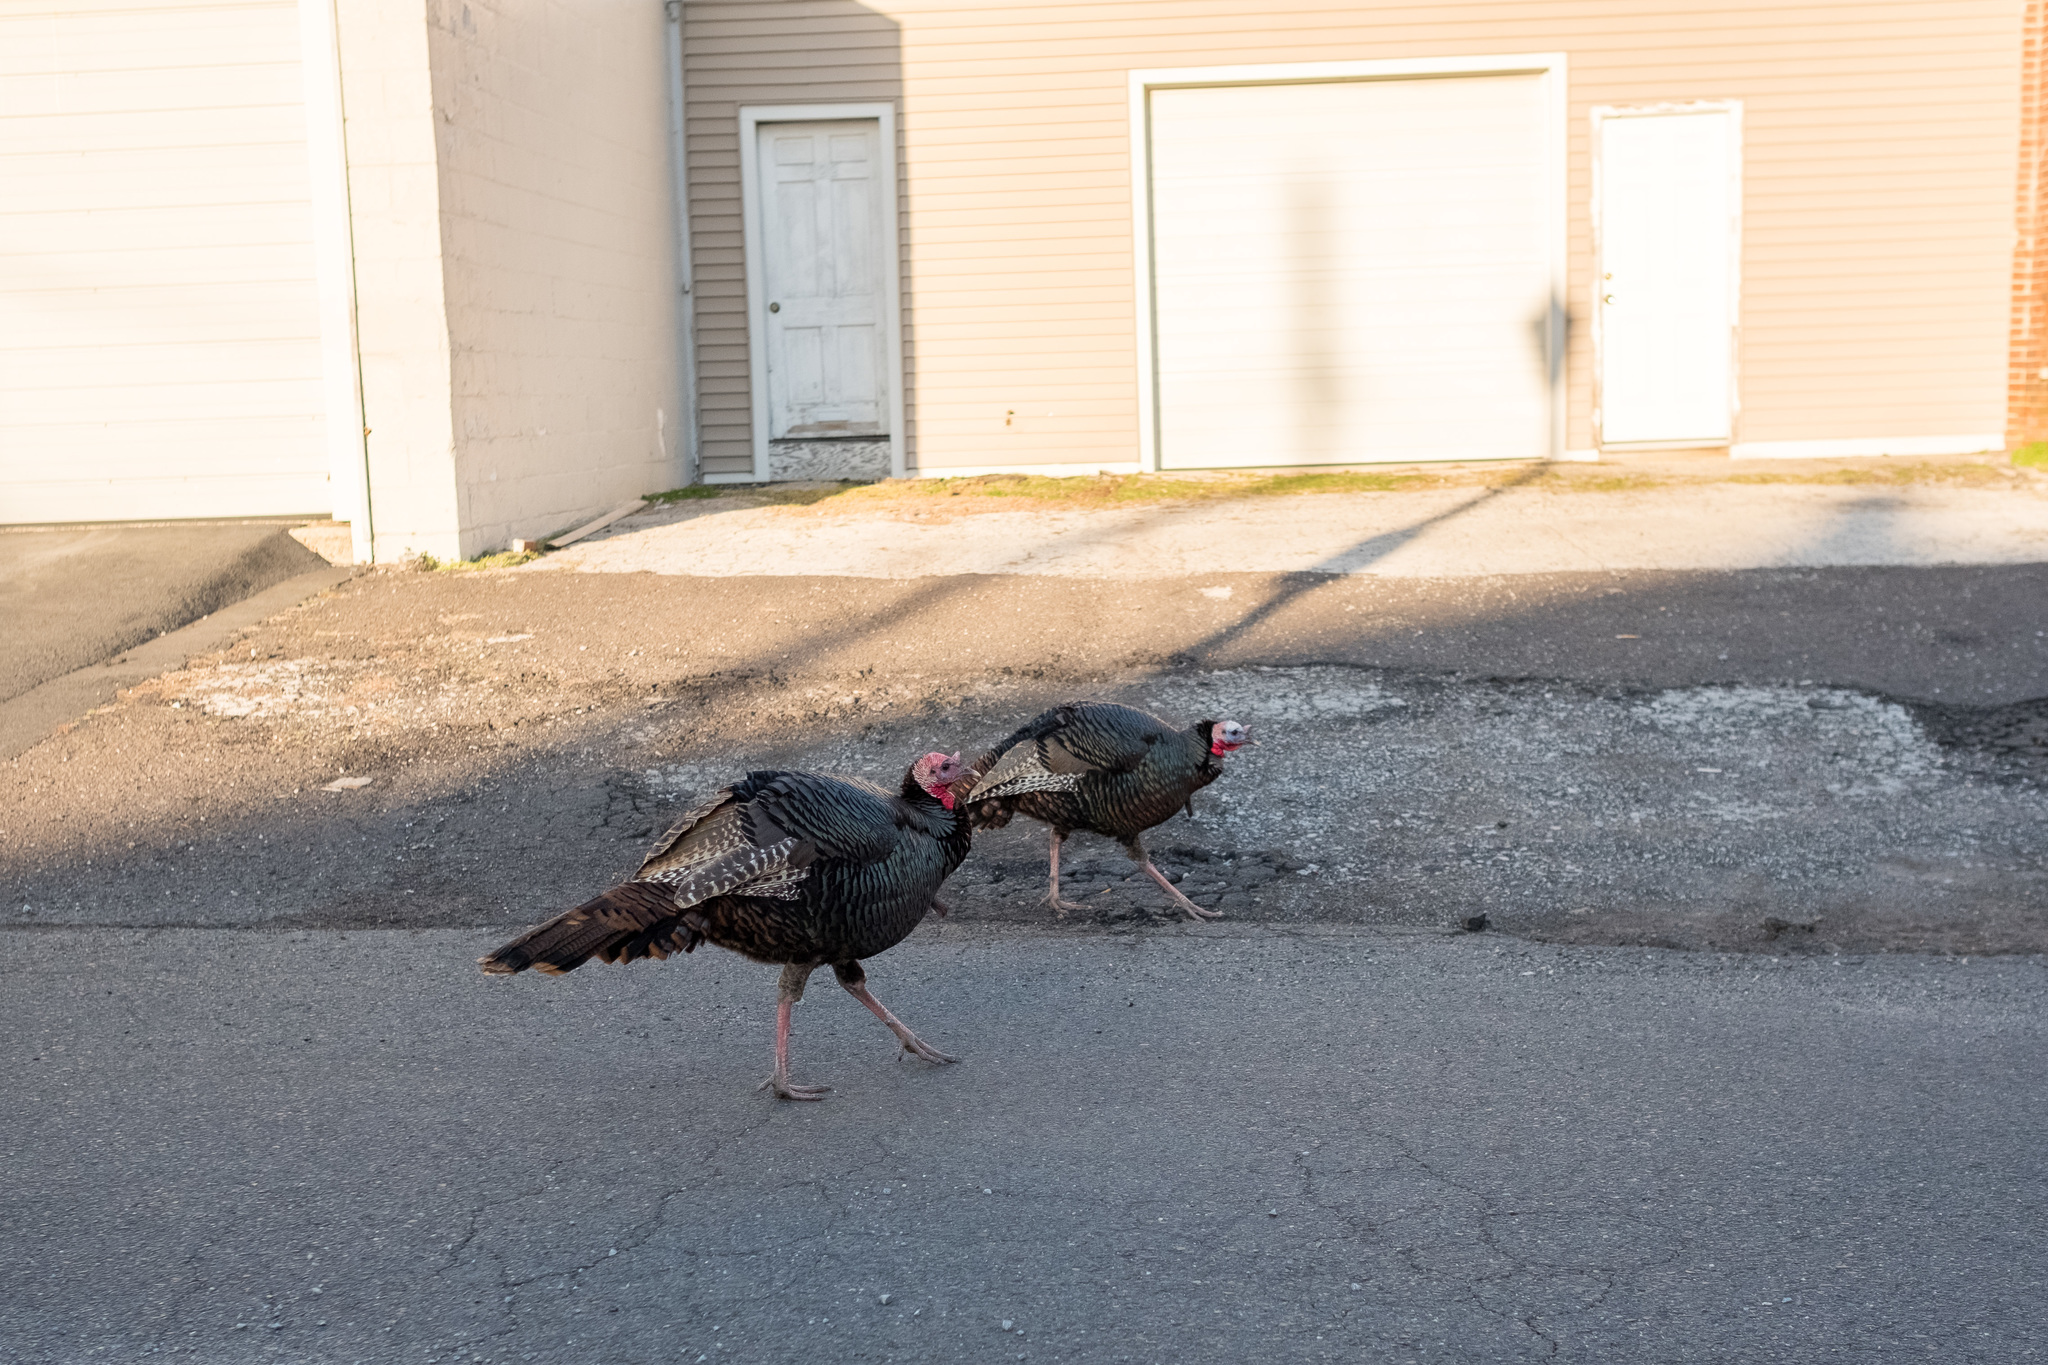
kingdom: Animalia
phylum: Chordata
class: Aves
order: Galliformes
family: Phasianidae
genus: Meleagris
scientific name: Meleagris gallopavo
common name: Wild turkey
